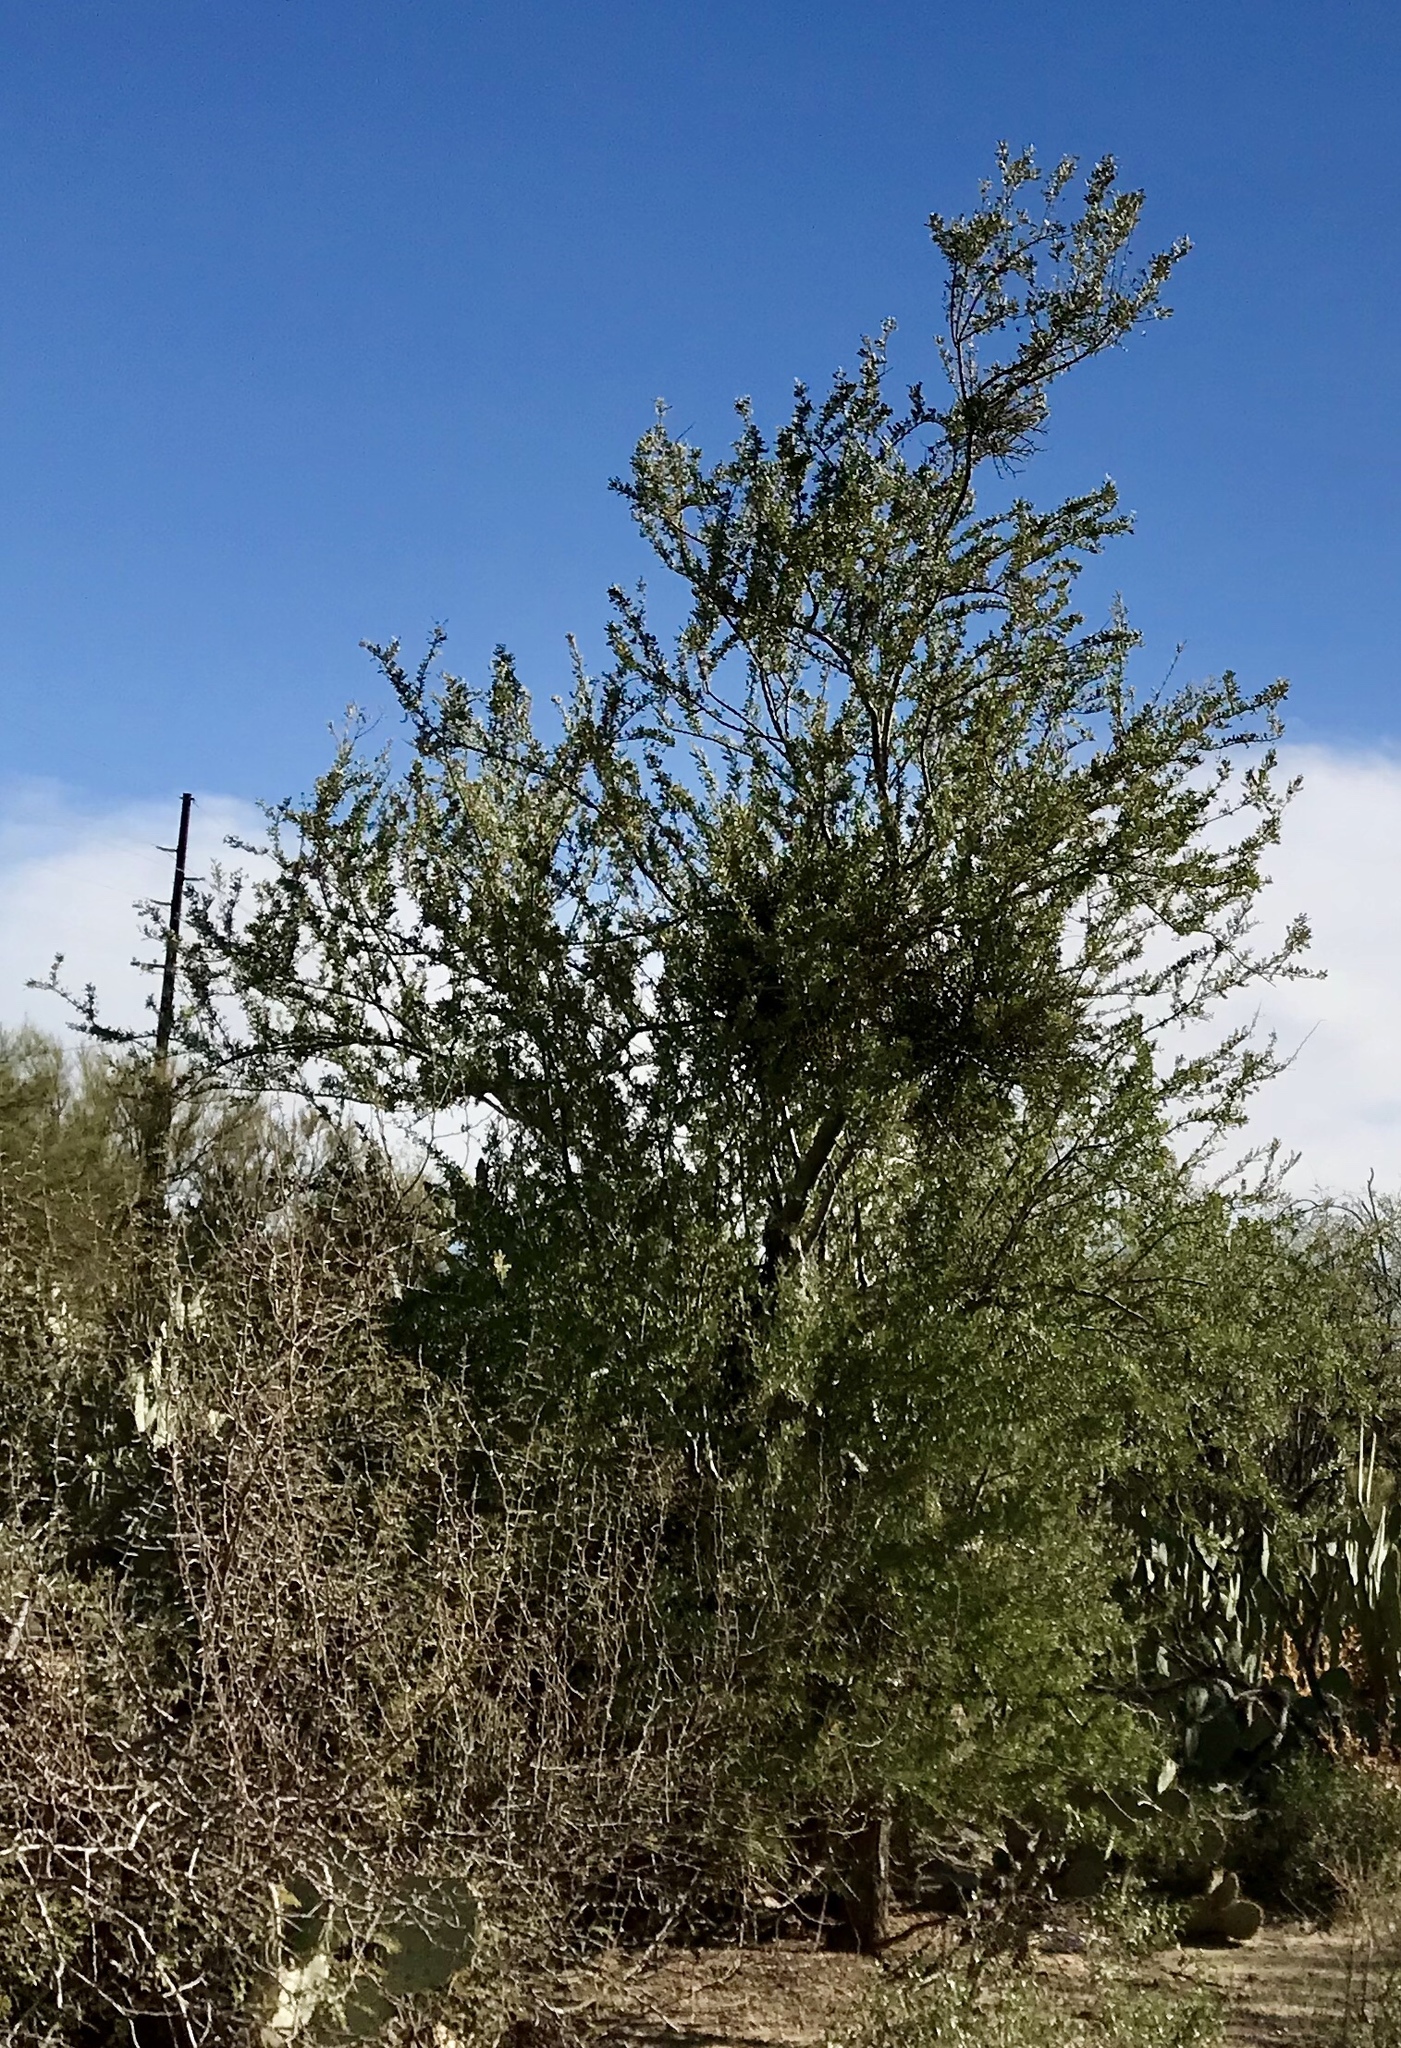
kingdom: Plantae
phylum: Tracheophyta
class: Magnoliopsida
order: Fabales
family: Fabaceae
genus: Olneya
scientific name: Olneya tesota
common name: Desert ironwood
